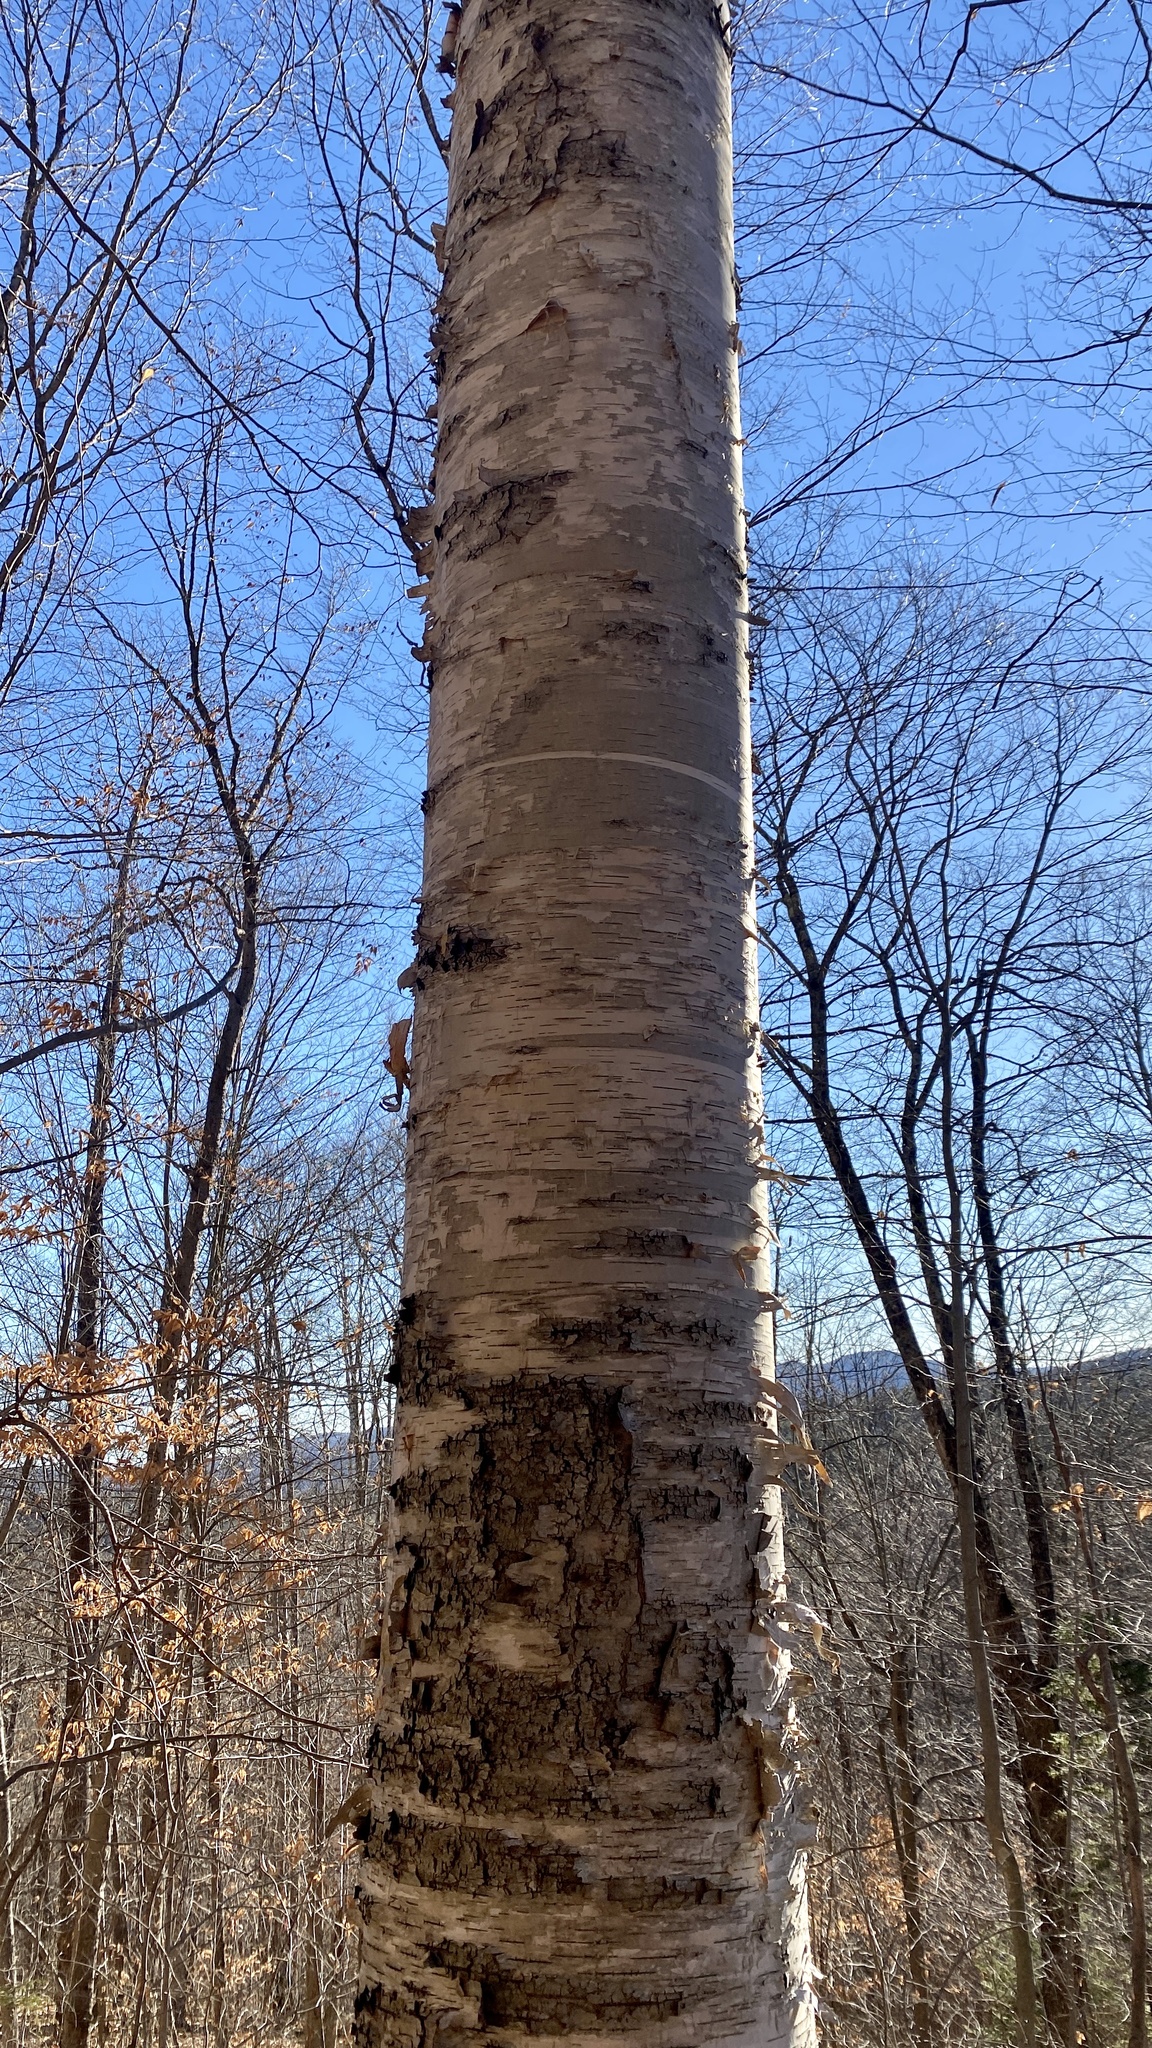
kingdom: Plantae
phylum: Tracheophyta
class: Magnoliopsida
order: Fagales
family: Betulaceae
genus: Betula
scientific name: Betula papyrifera
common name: Paper birch
